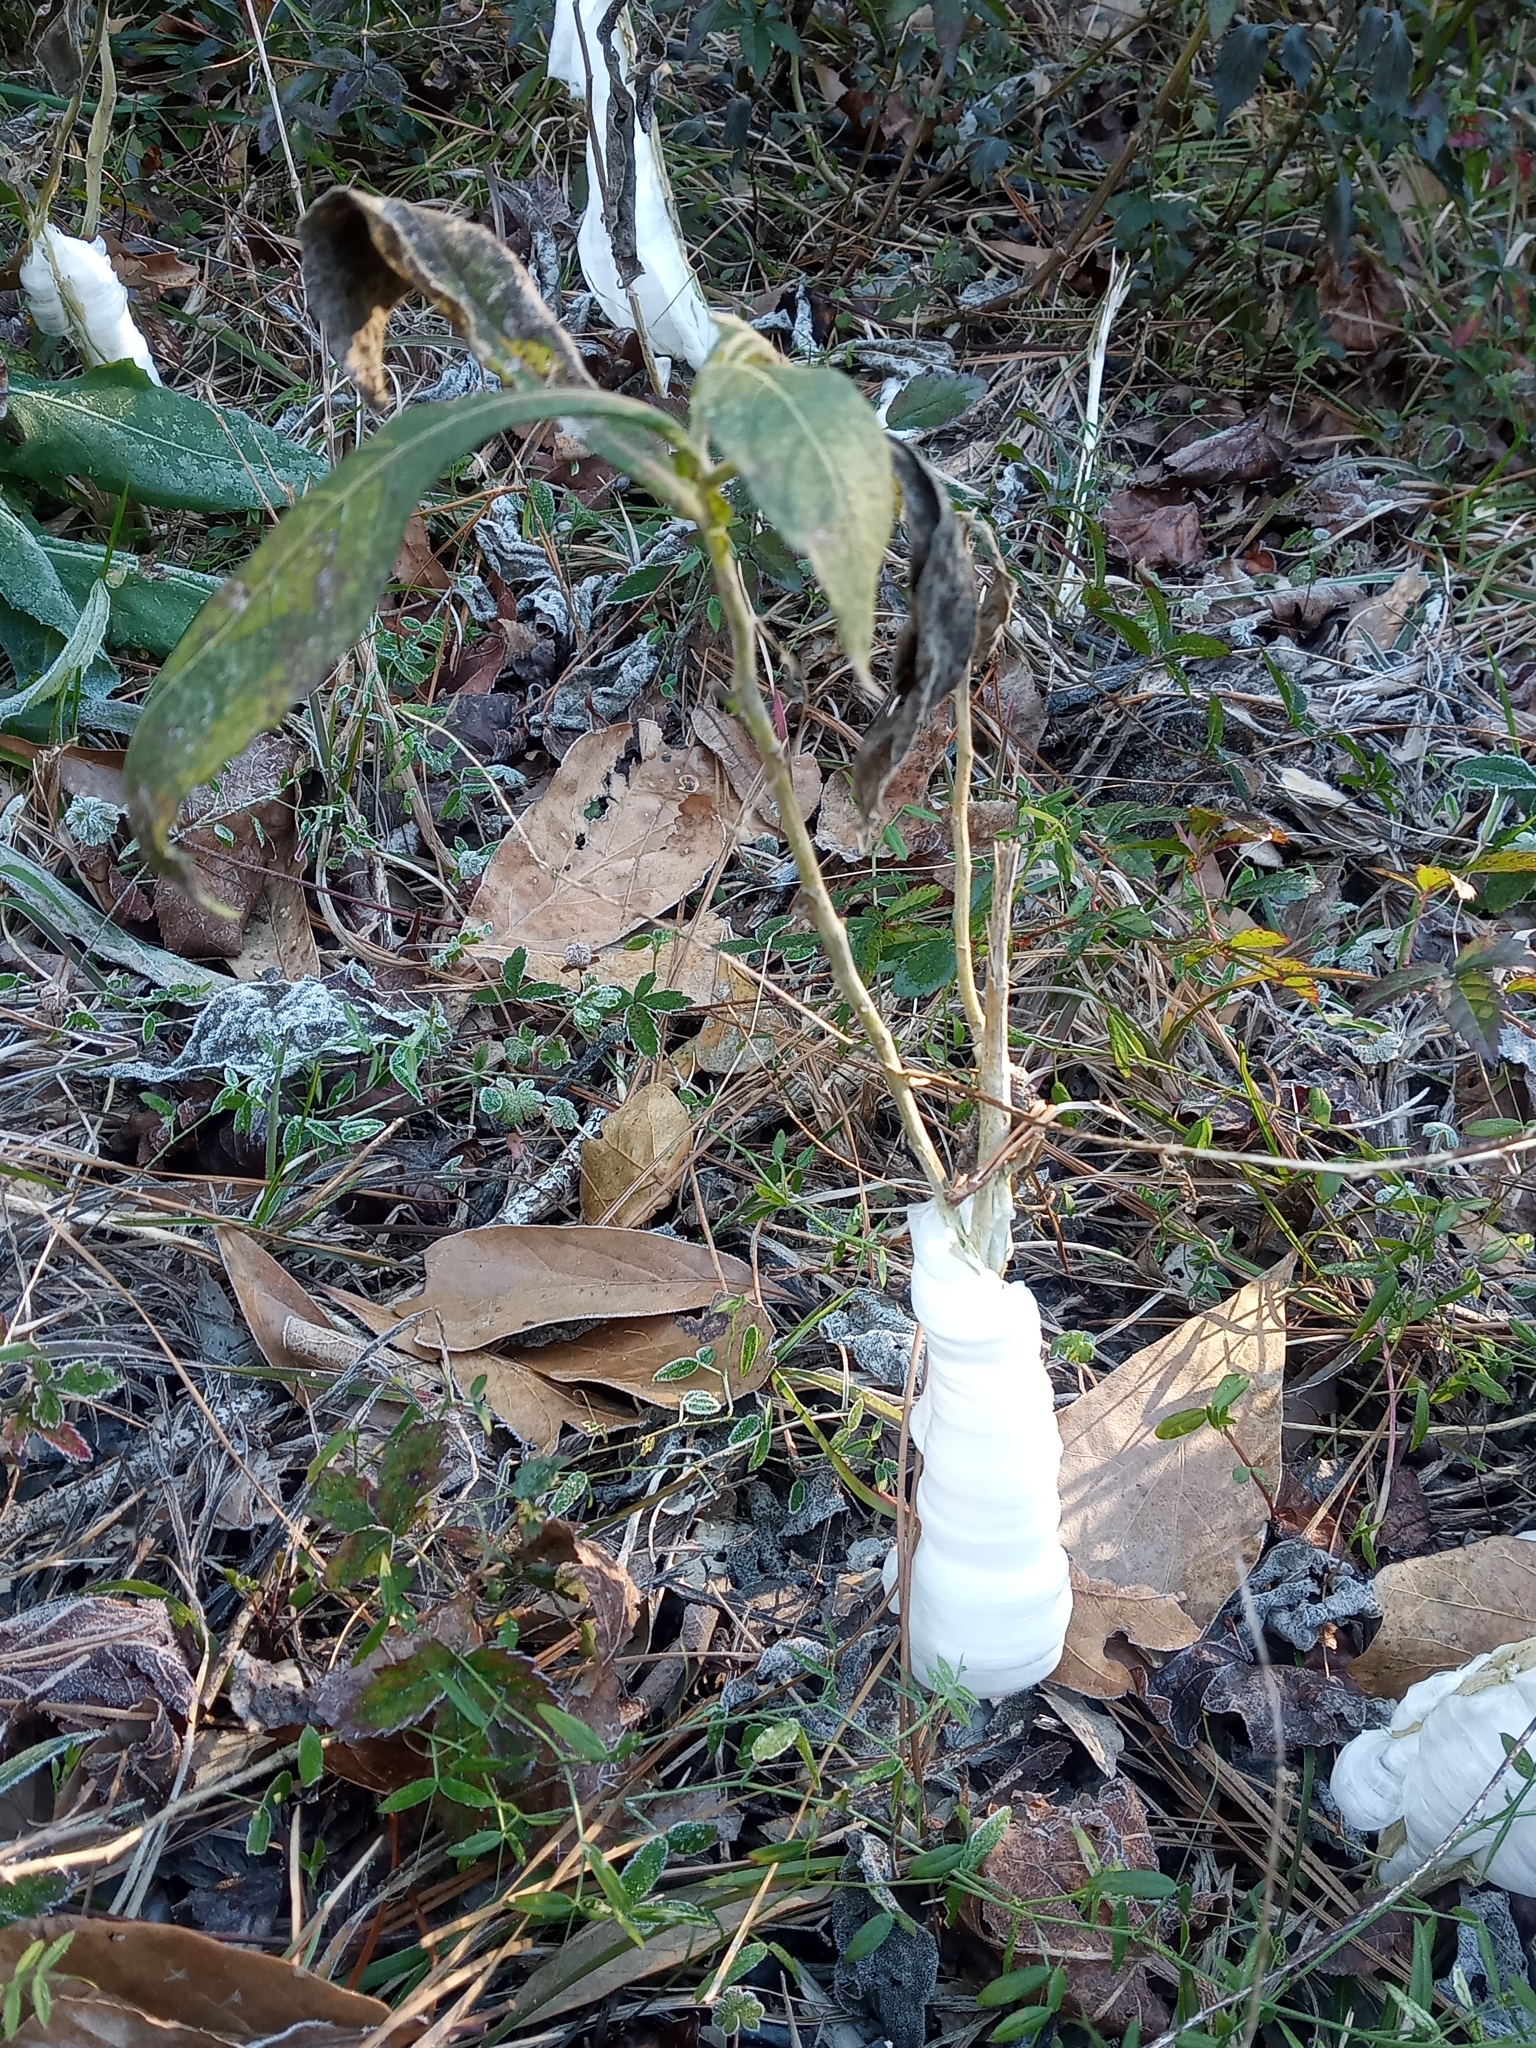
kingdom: Plantae
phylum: Tracheophyta
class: Magnoliopsida
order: Asterales
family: Asteraceae
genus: Verbesina
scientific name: Verbesina virginica
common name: Frostweed
